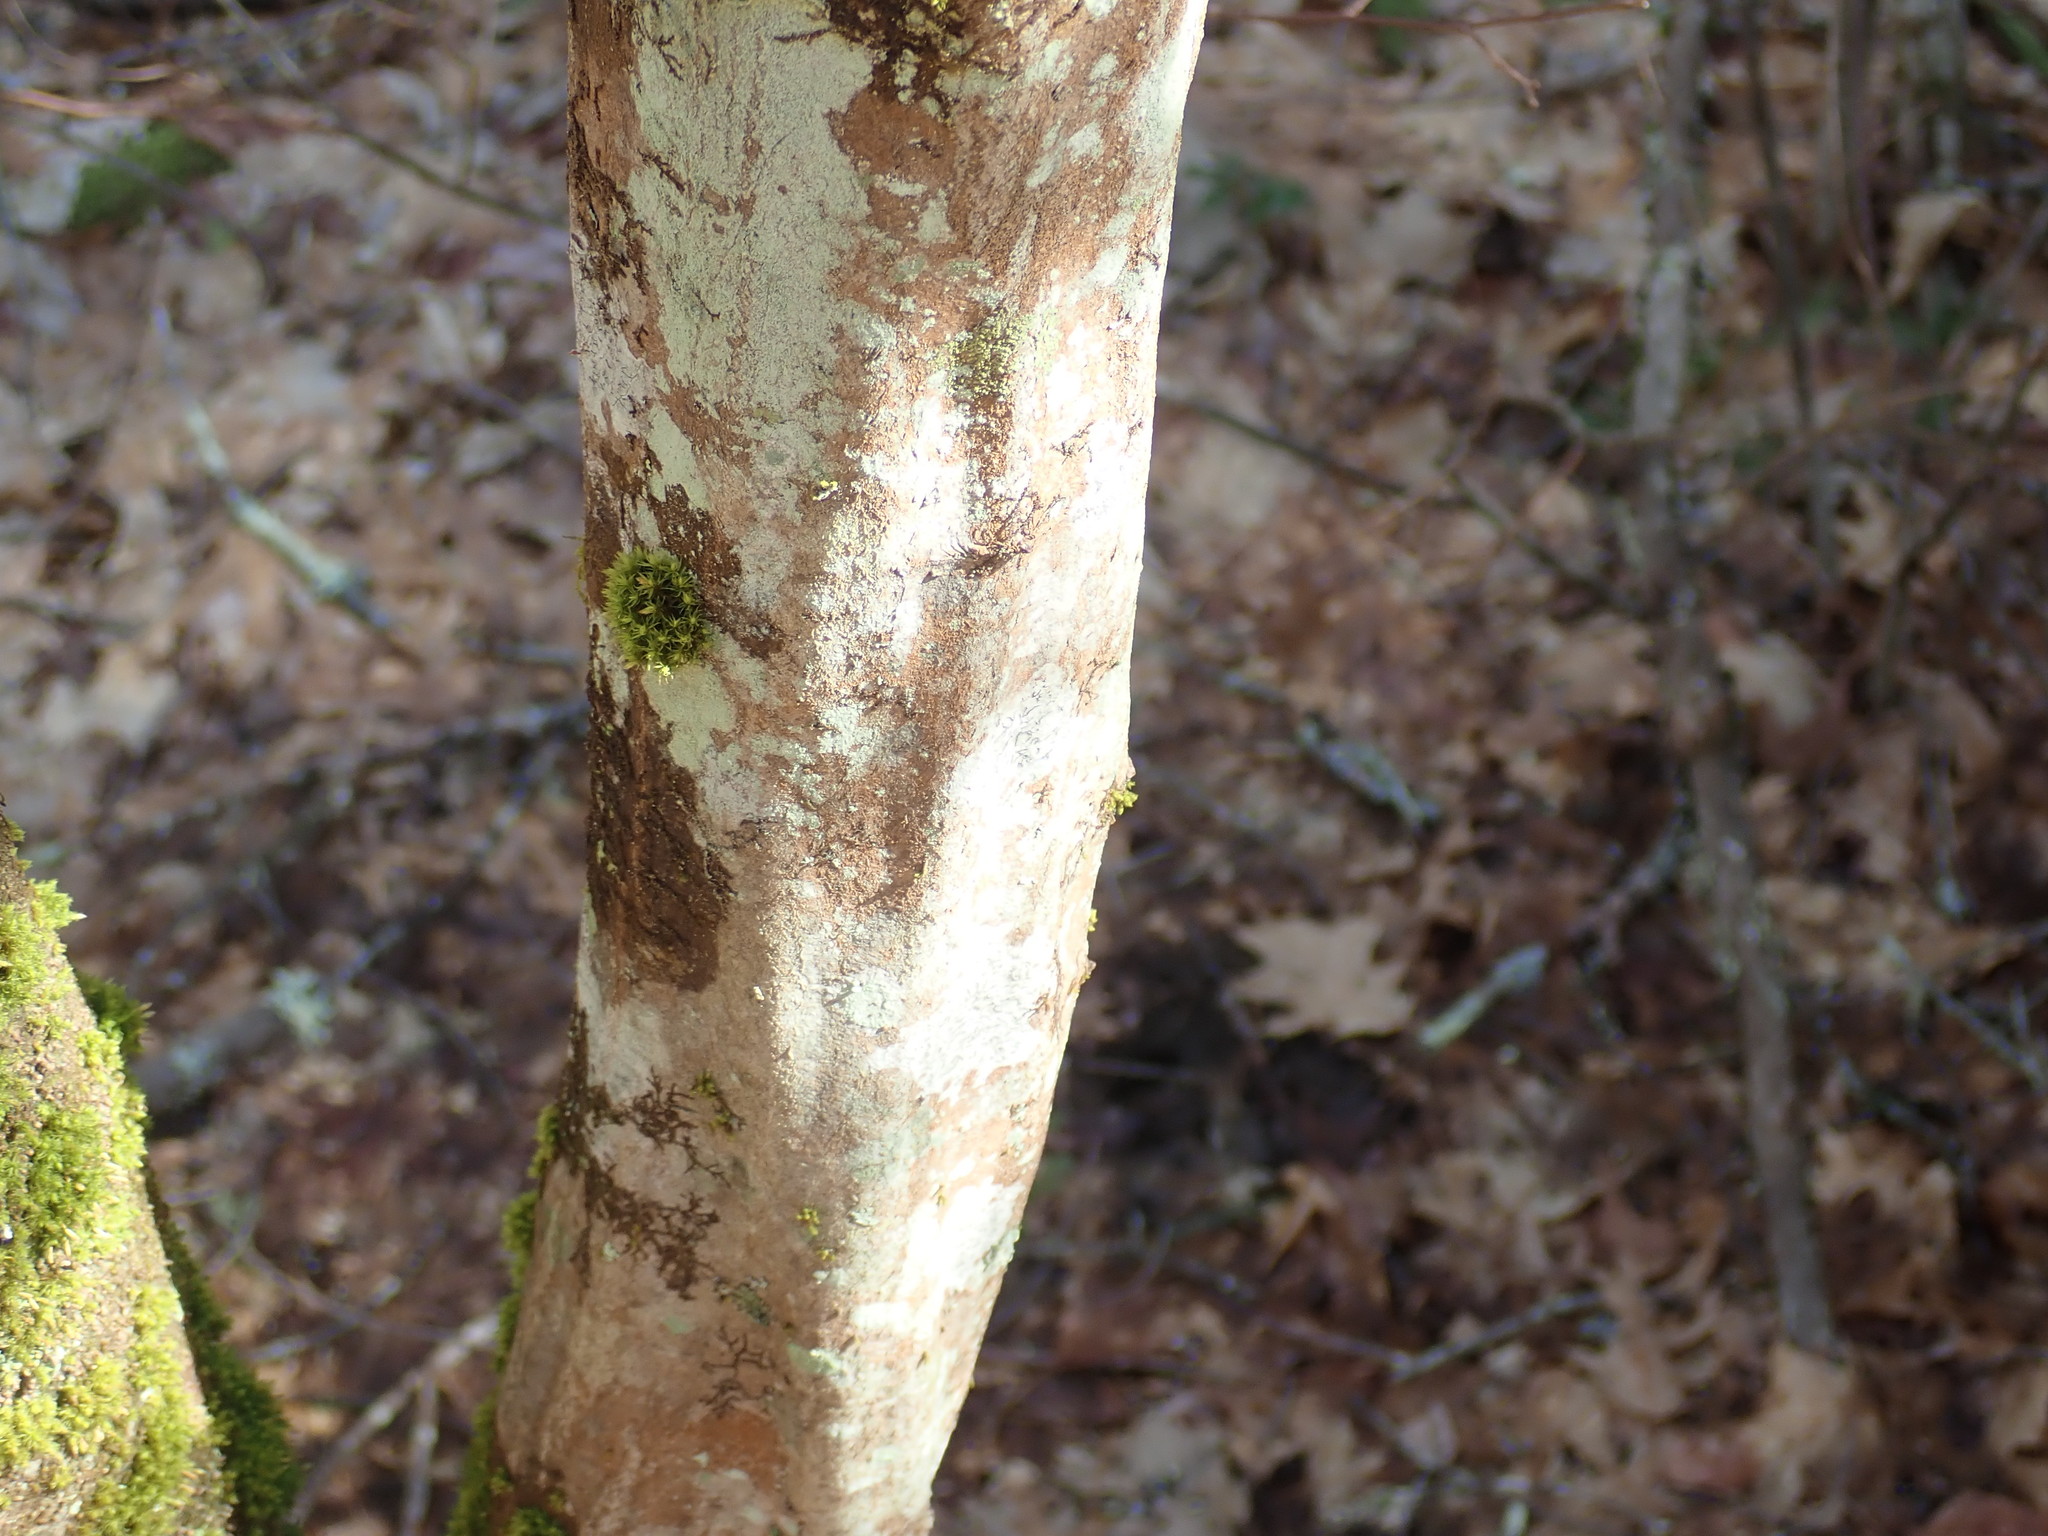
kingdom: Plantae
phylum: Tracheophyta
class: Magnoliopsida
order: Fagales
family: Betulaceae
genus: Carpinus
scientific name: Carpinus caroliniana
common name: American hornbeam
